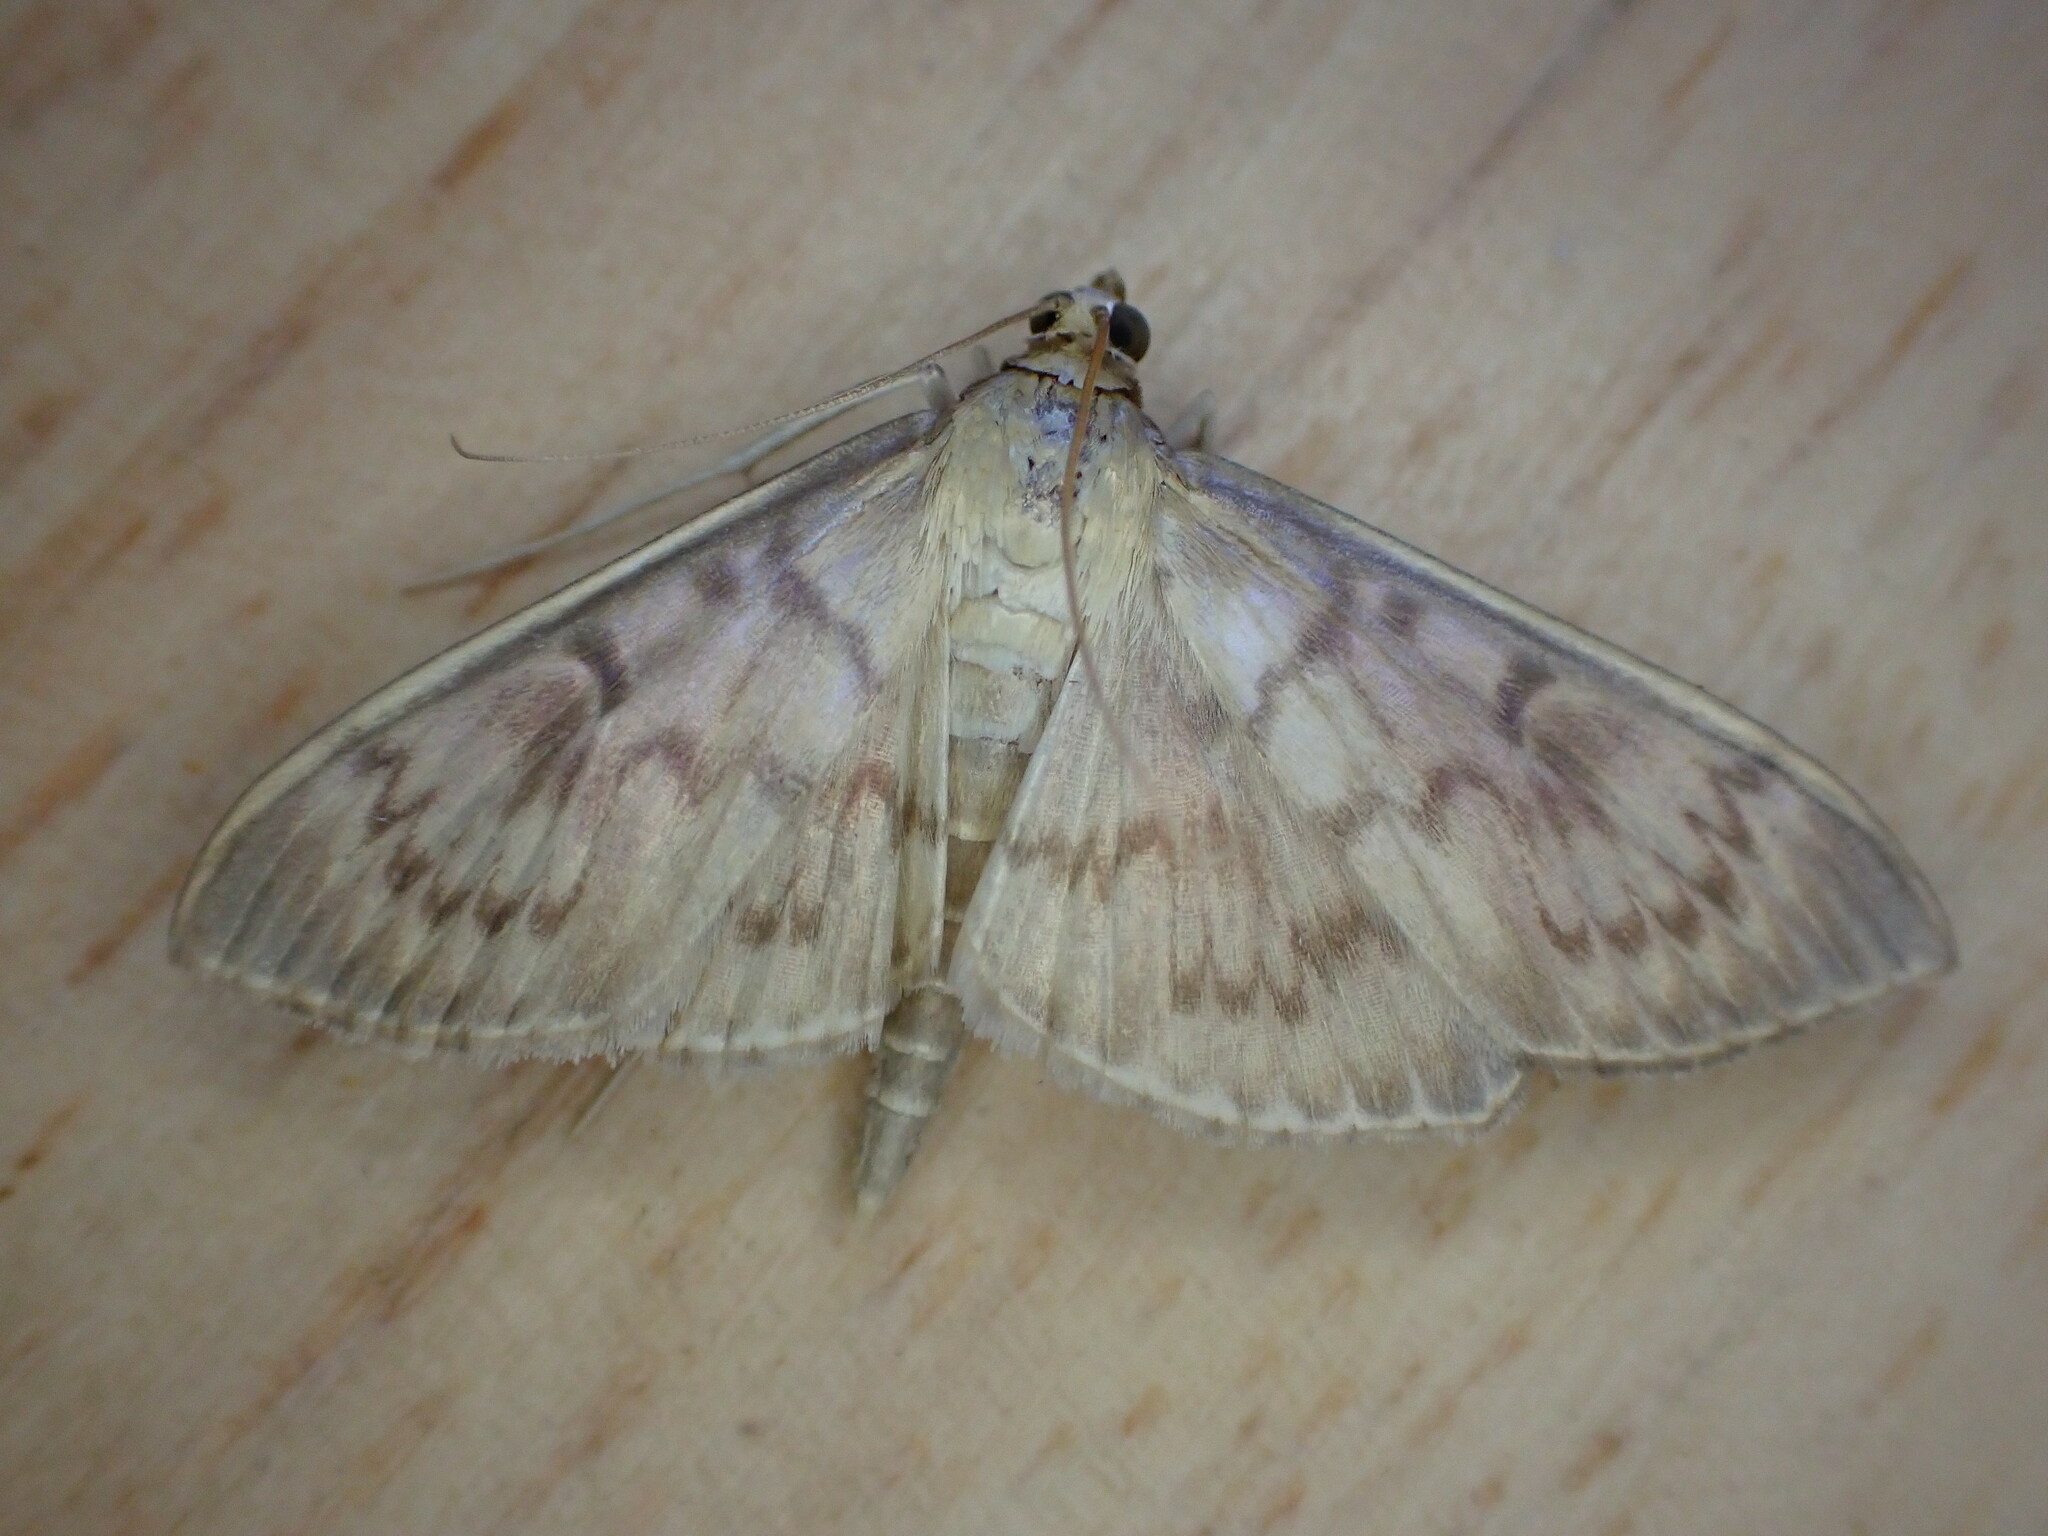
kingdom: Animalia
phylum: Arthropoda
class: Insecta
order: Lepidoptera
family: Crambidae
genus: Patania
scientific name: Patania ruralis
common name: Mother of pearl
